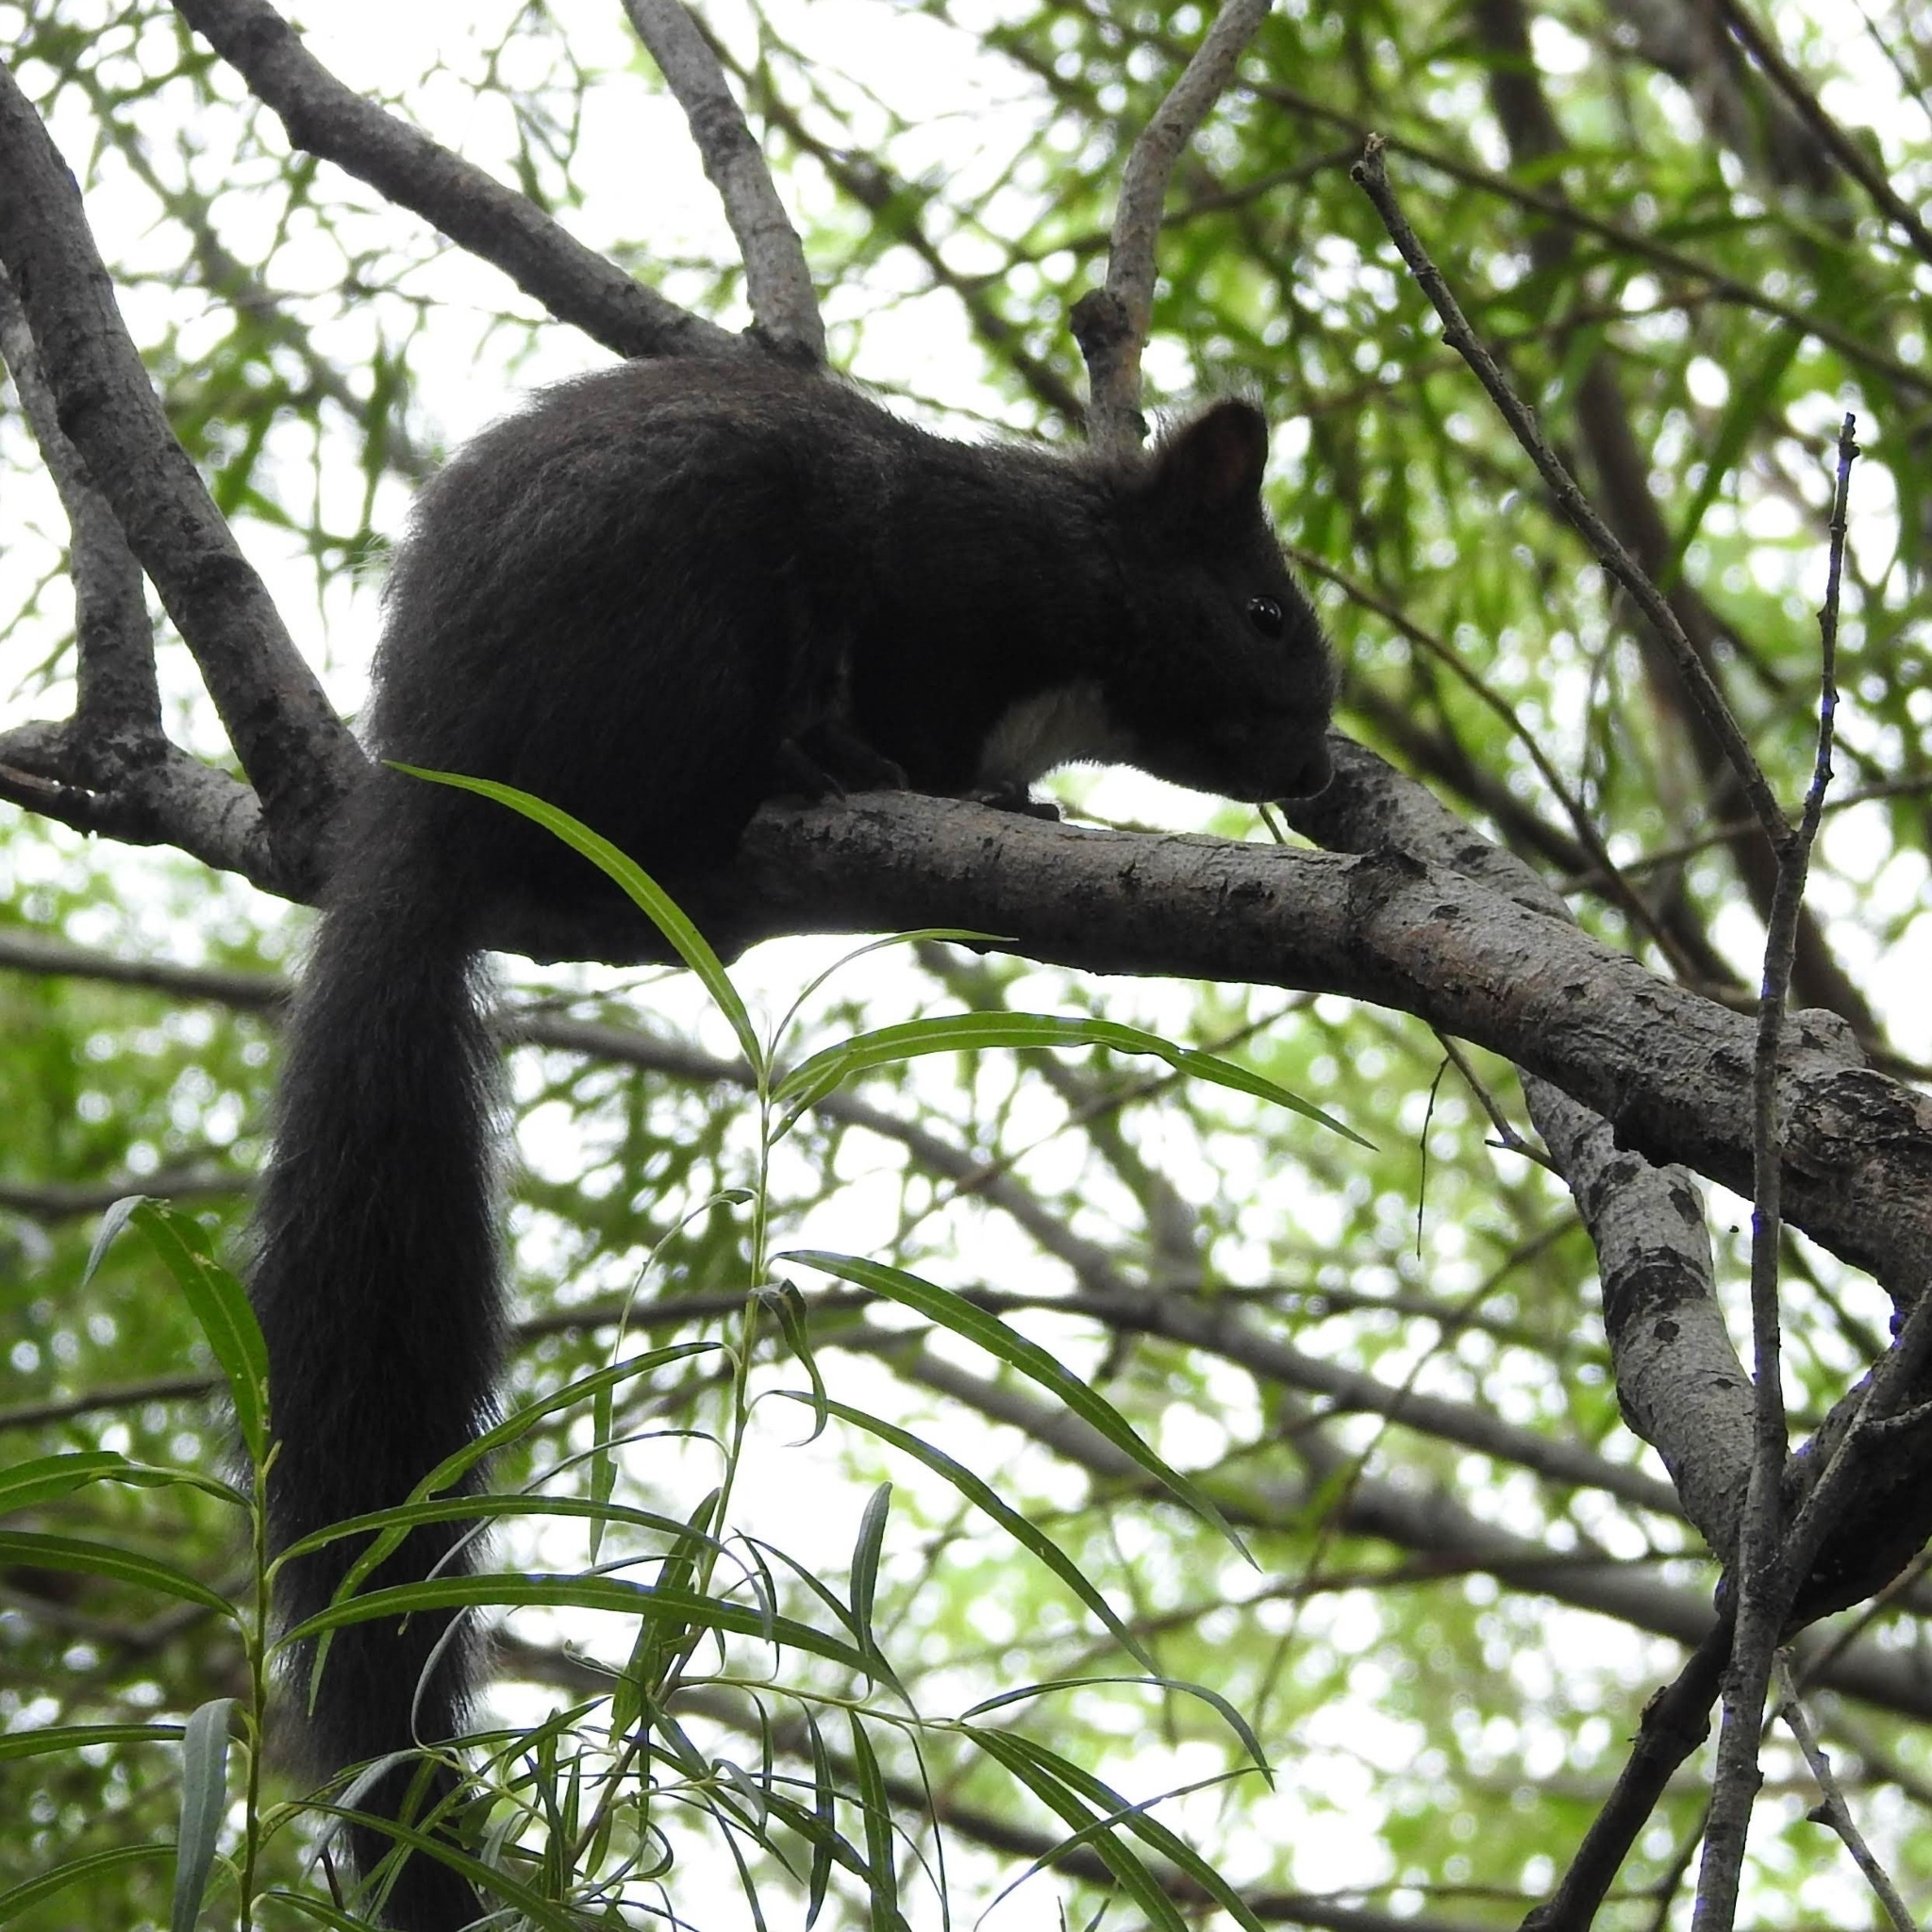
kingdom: Animalia
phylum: Chordata
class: Mammalia
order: Rodentia
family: Sciuridae
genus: Sciurus
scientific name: Sciurus vulgaris
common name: Eurasian red squirrel
